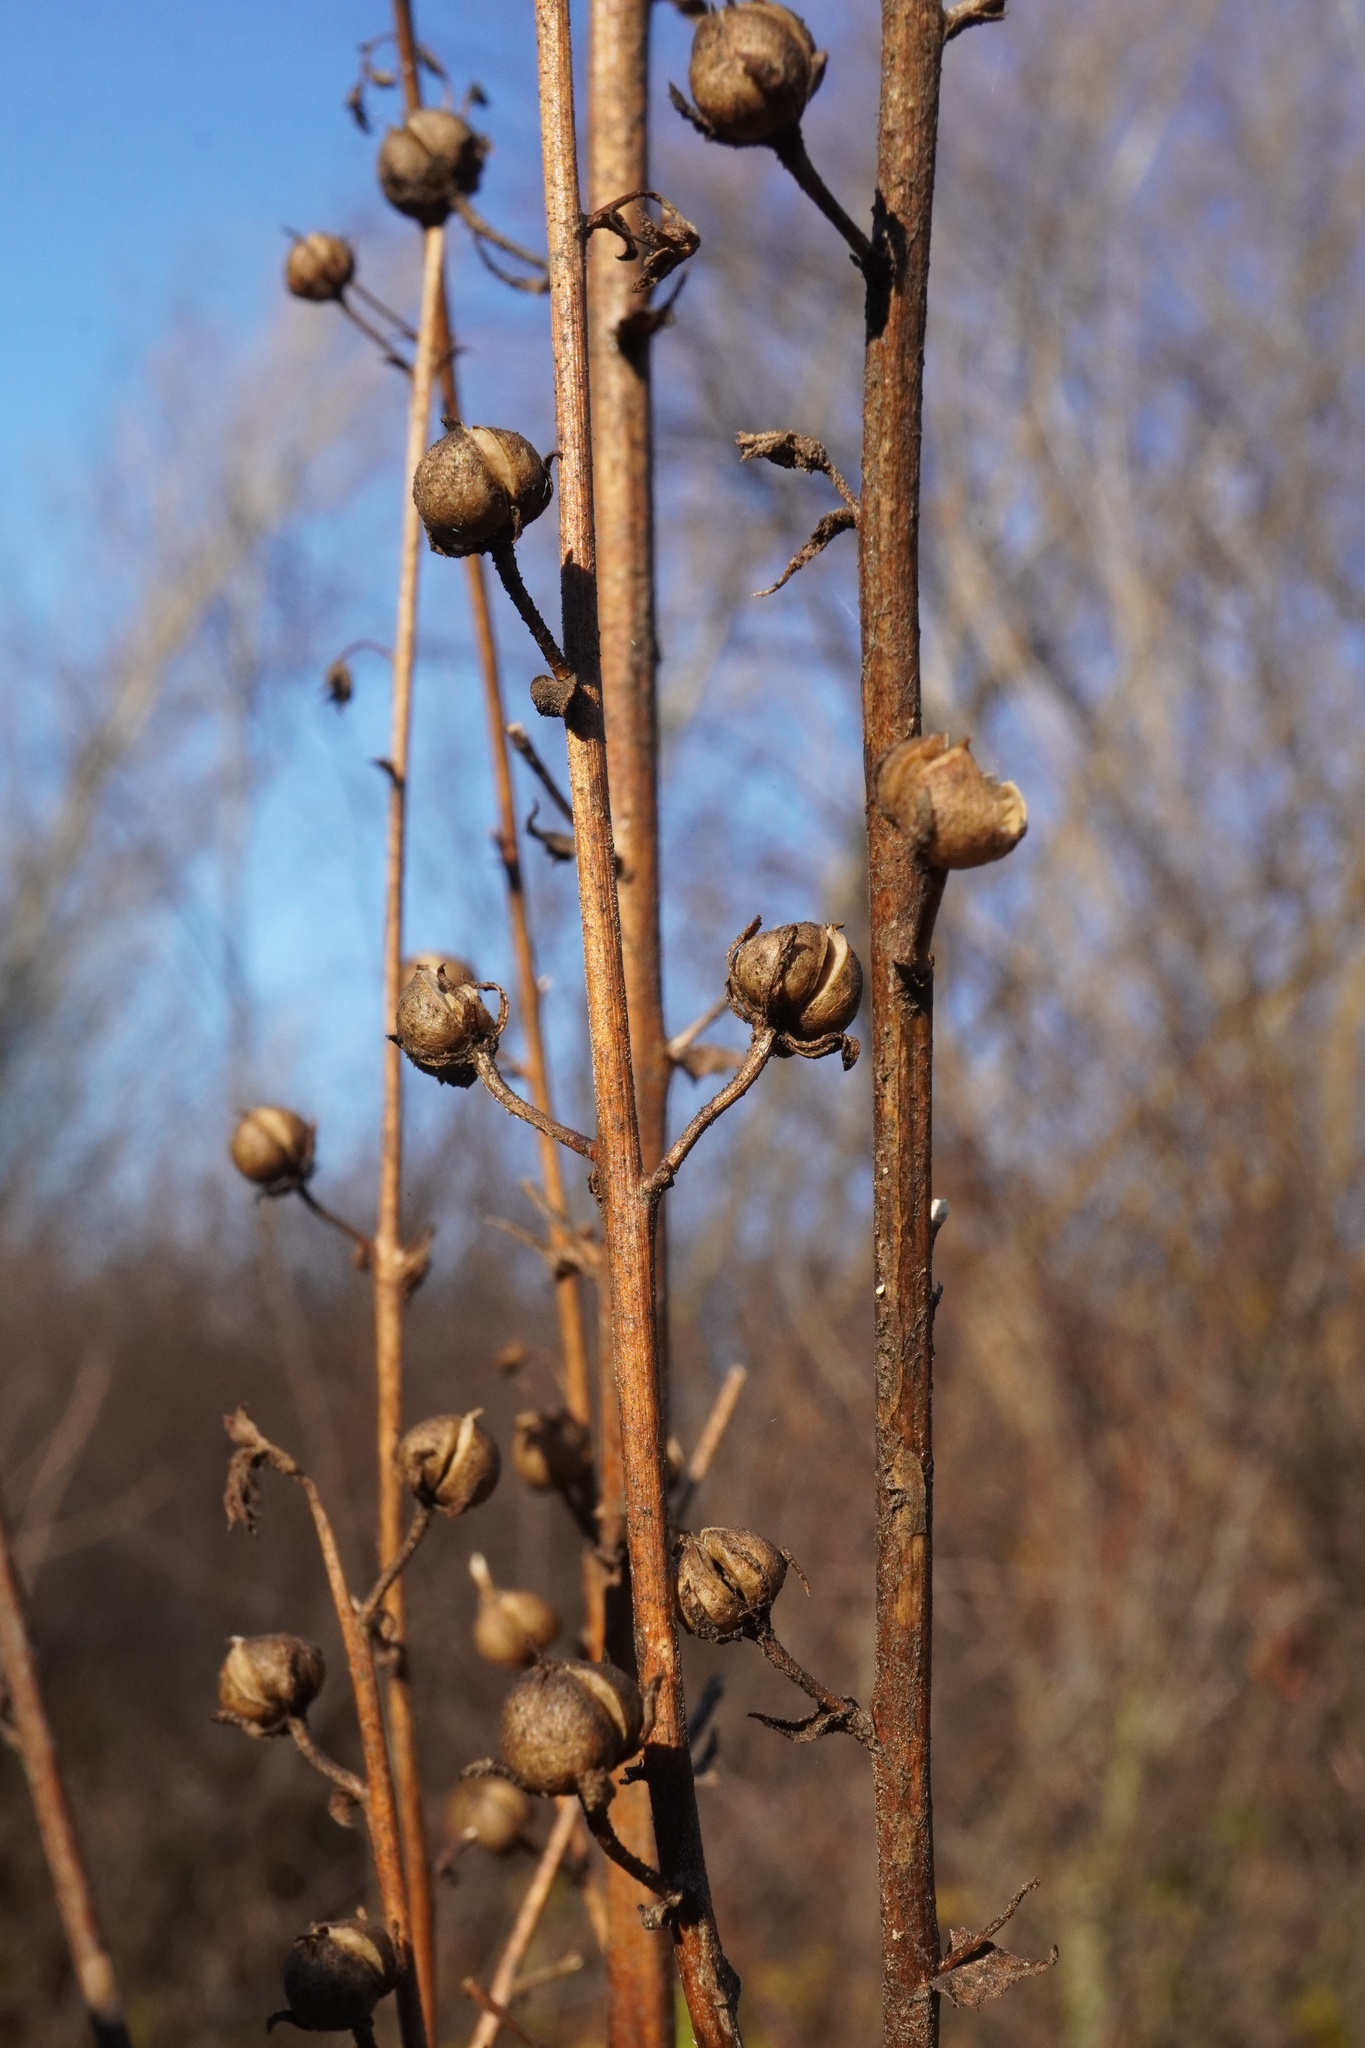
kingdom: Plantae
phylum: Tracheophyta
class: Magnoliopsida
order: Lamiales
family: Scrophulariaceae
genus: Verbascum
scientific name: Verbascum blattaria
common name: Moth mullein
